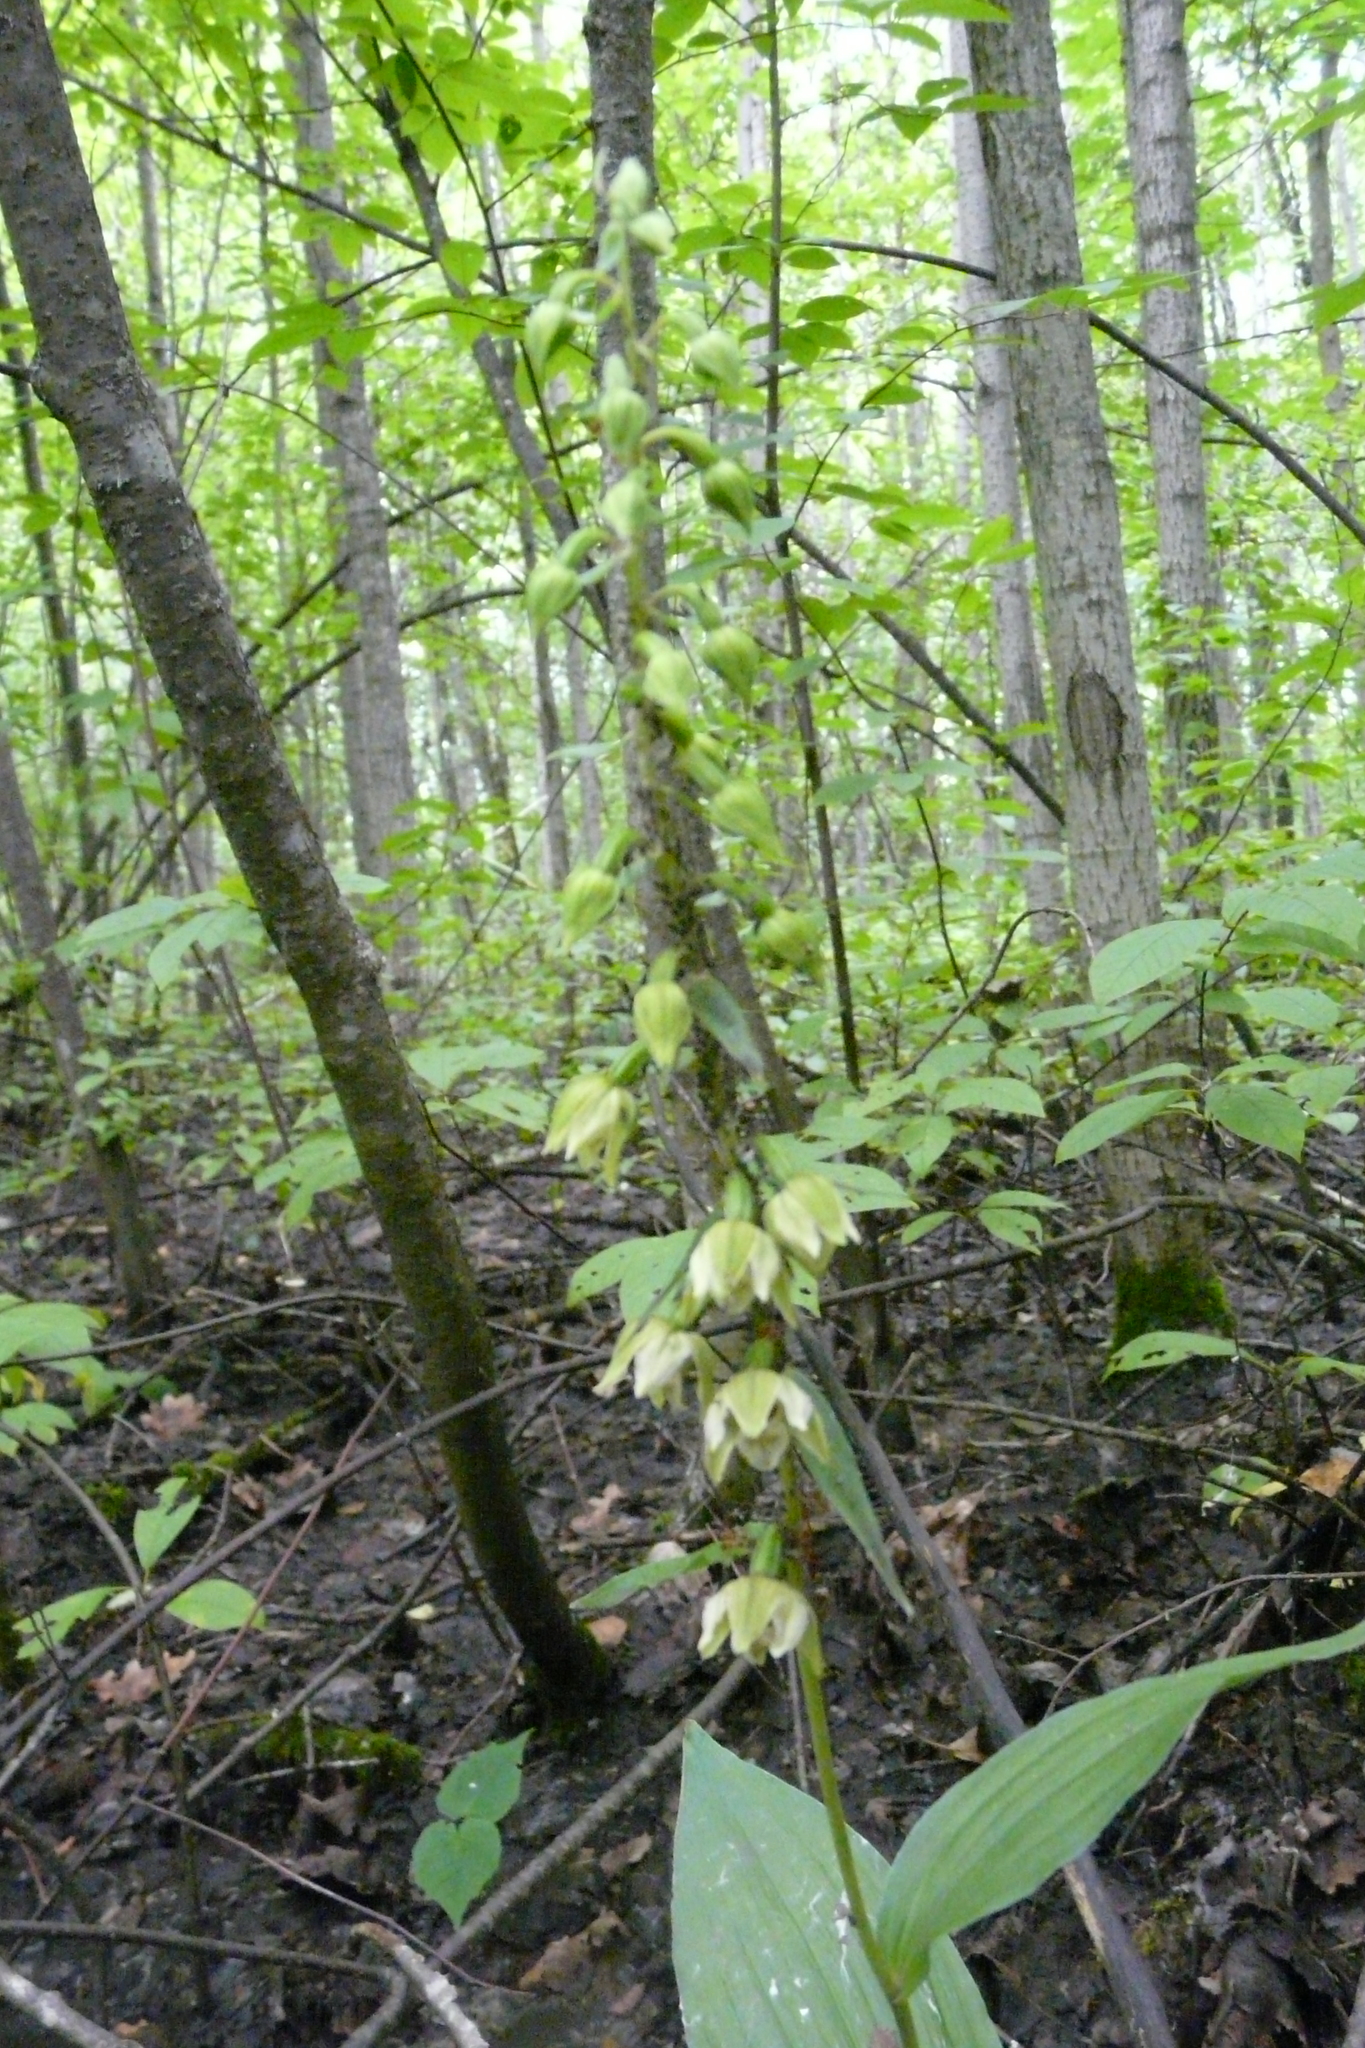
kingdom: Plantae
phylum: Tracheophyta
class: Liliopsida
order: Asparagales
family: Orchidaceae
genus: Epipactis
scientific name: Epipactis helleborine
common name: Broad-leaved helleborine
